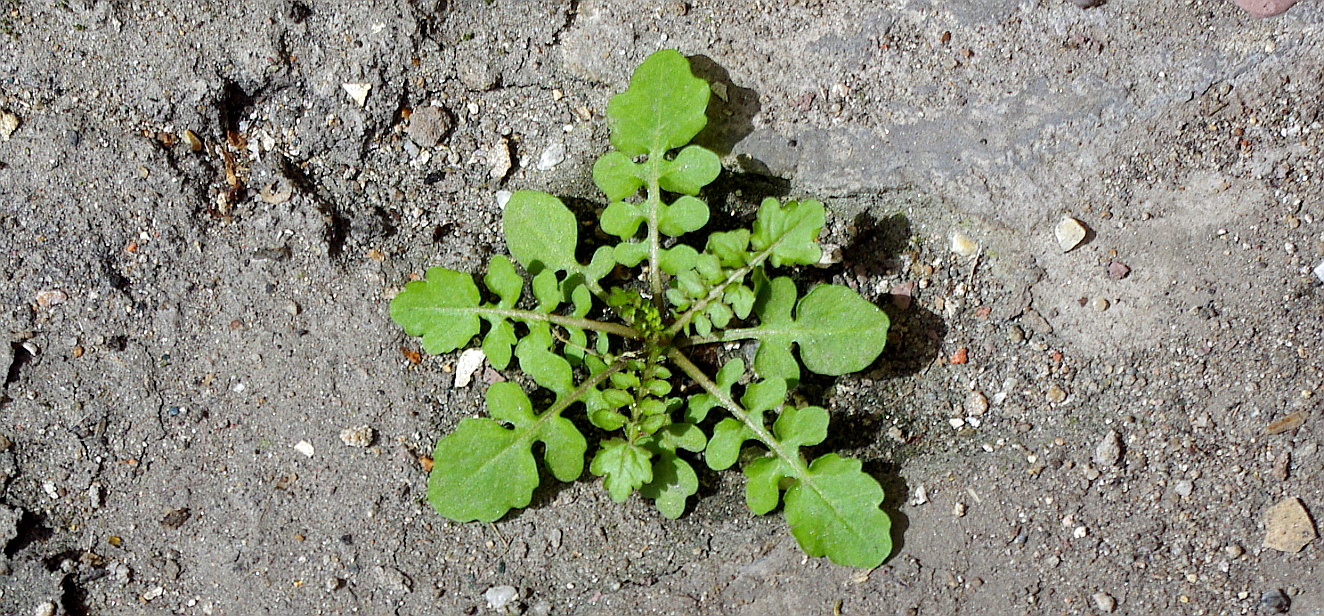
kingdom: Plantae
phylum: Tracheophyta
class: Magnoliopsida
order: Brassicales
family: Brassicaceae
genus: Rorippa
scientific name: Rorippa palustris
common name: Marsh yellow-cress
